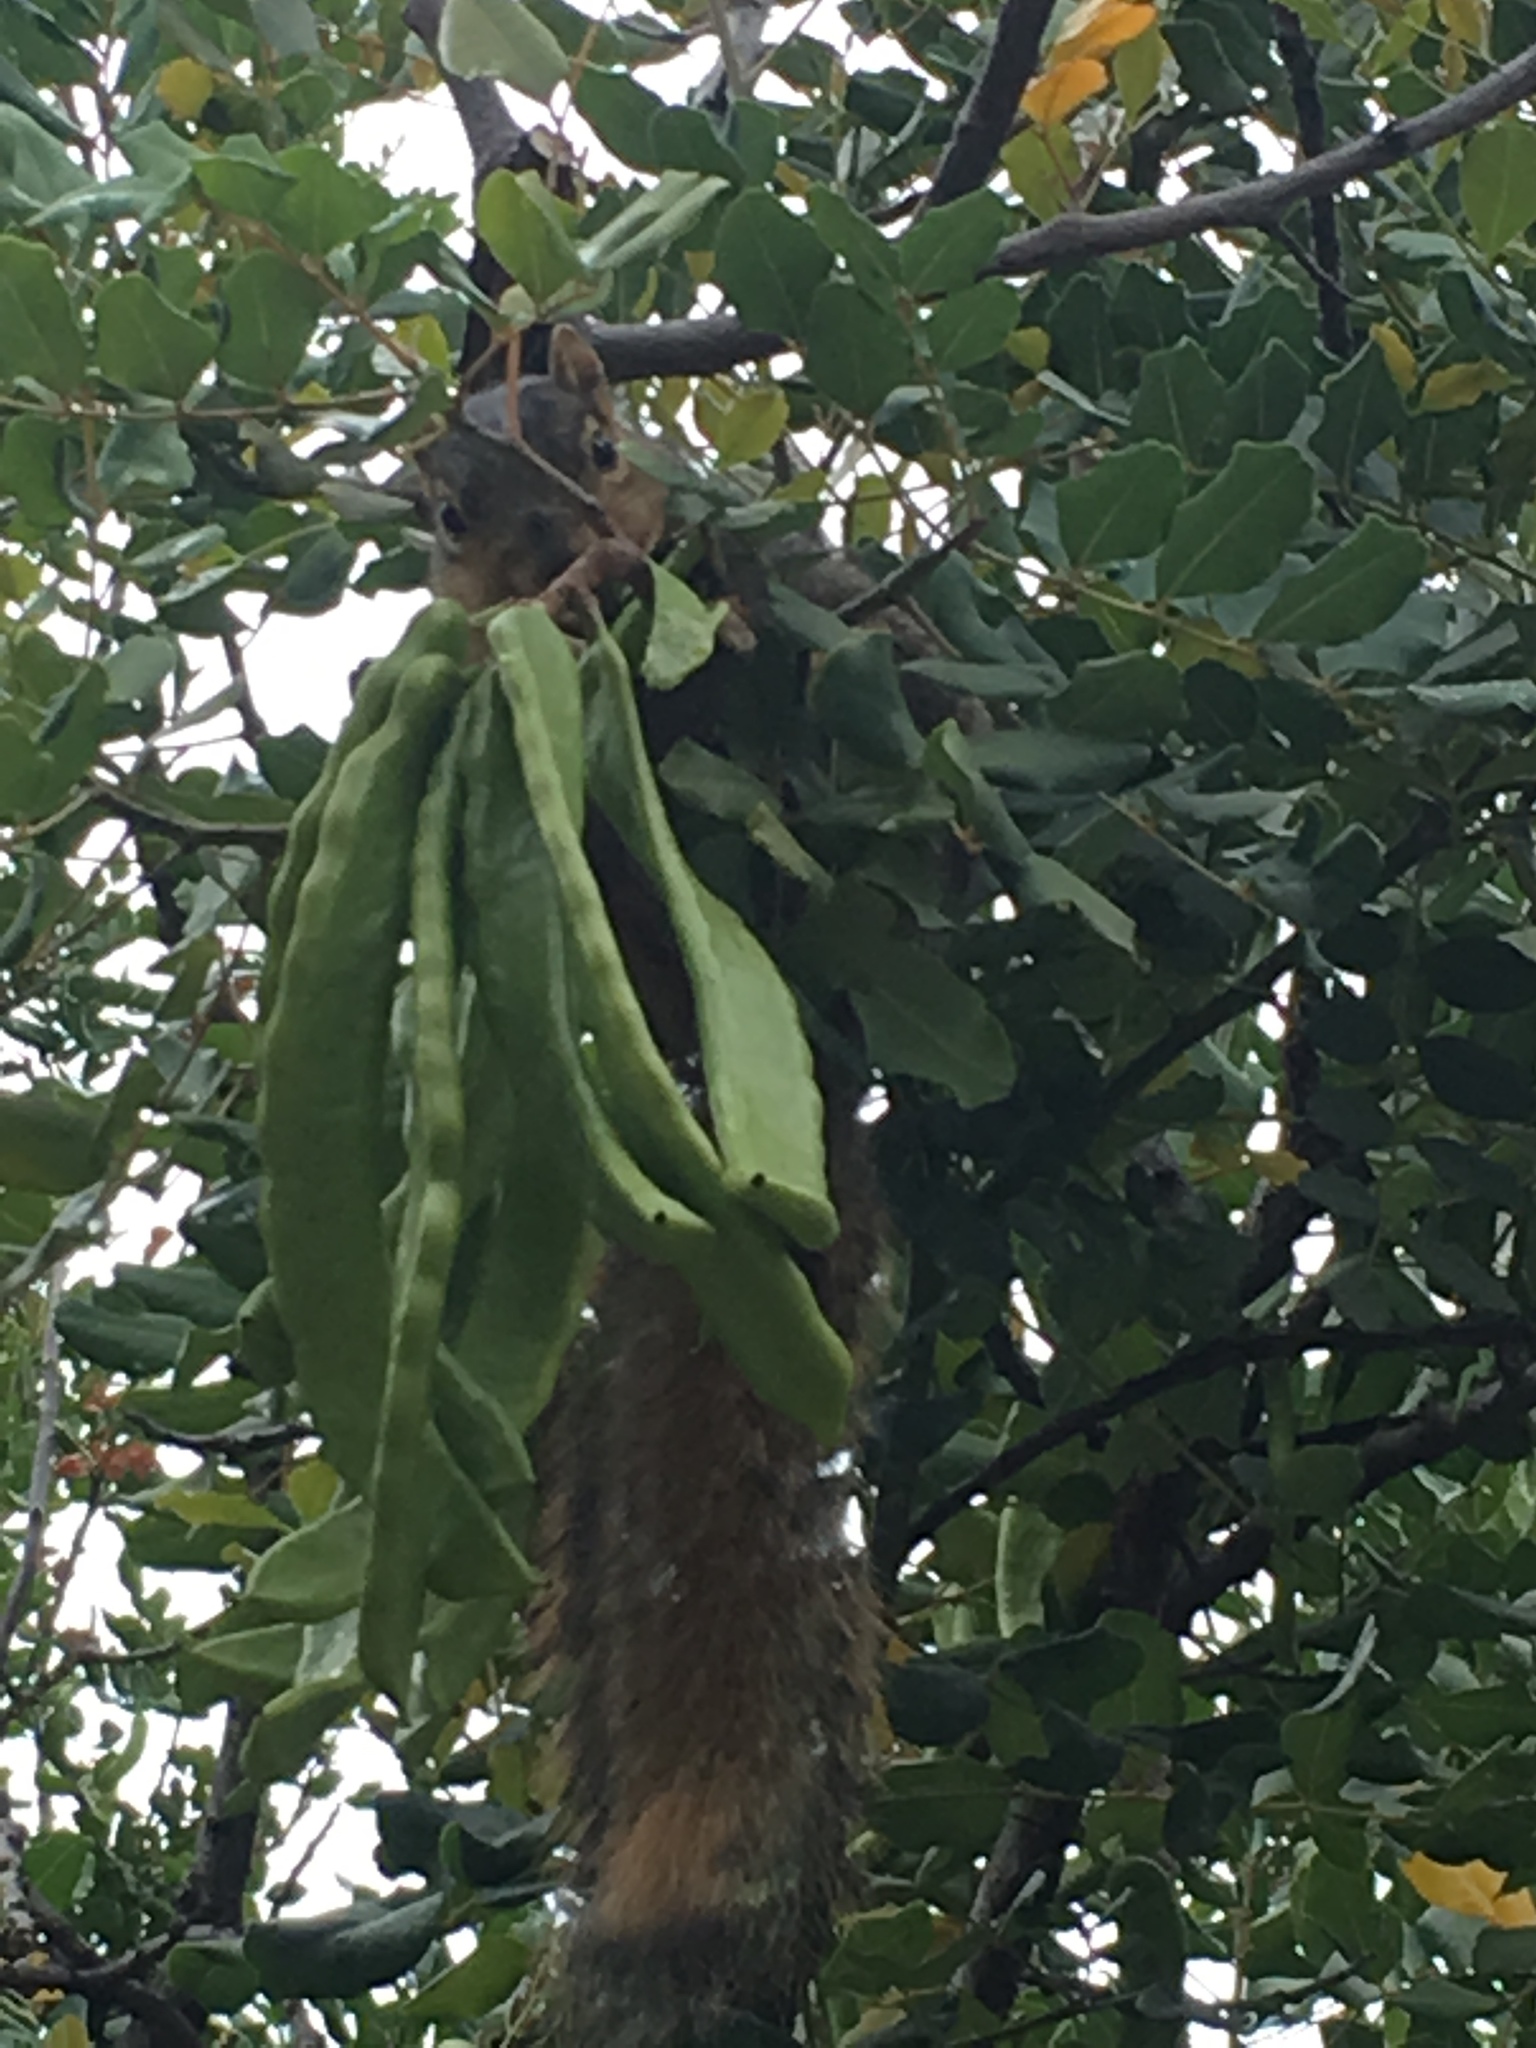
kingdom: Animalia
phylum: Chordata
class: Mammalia
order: Rodentia
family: Sciuridae
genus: Sciurus
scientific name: Sciurus niger
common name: Fox squirrel
